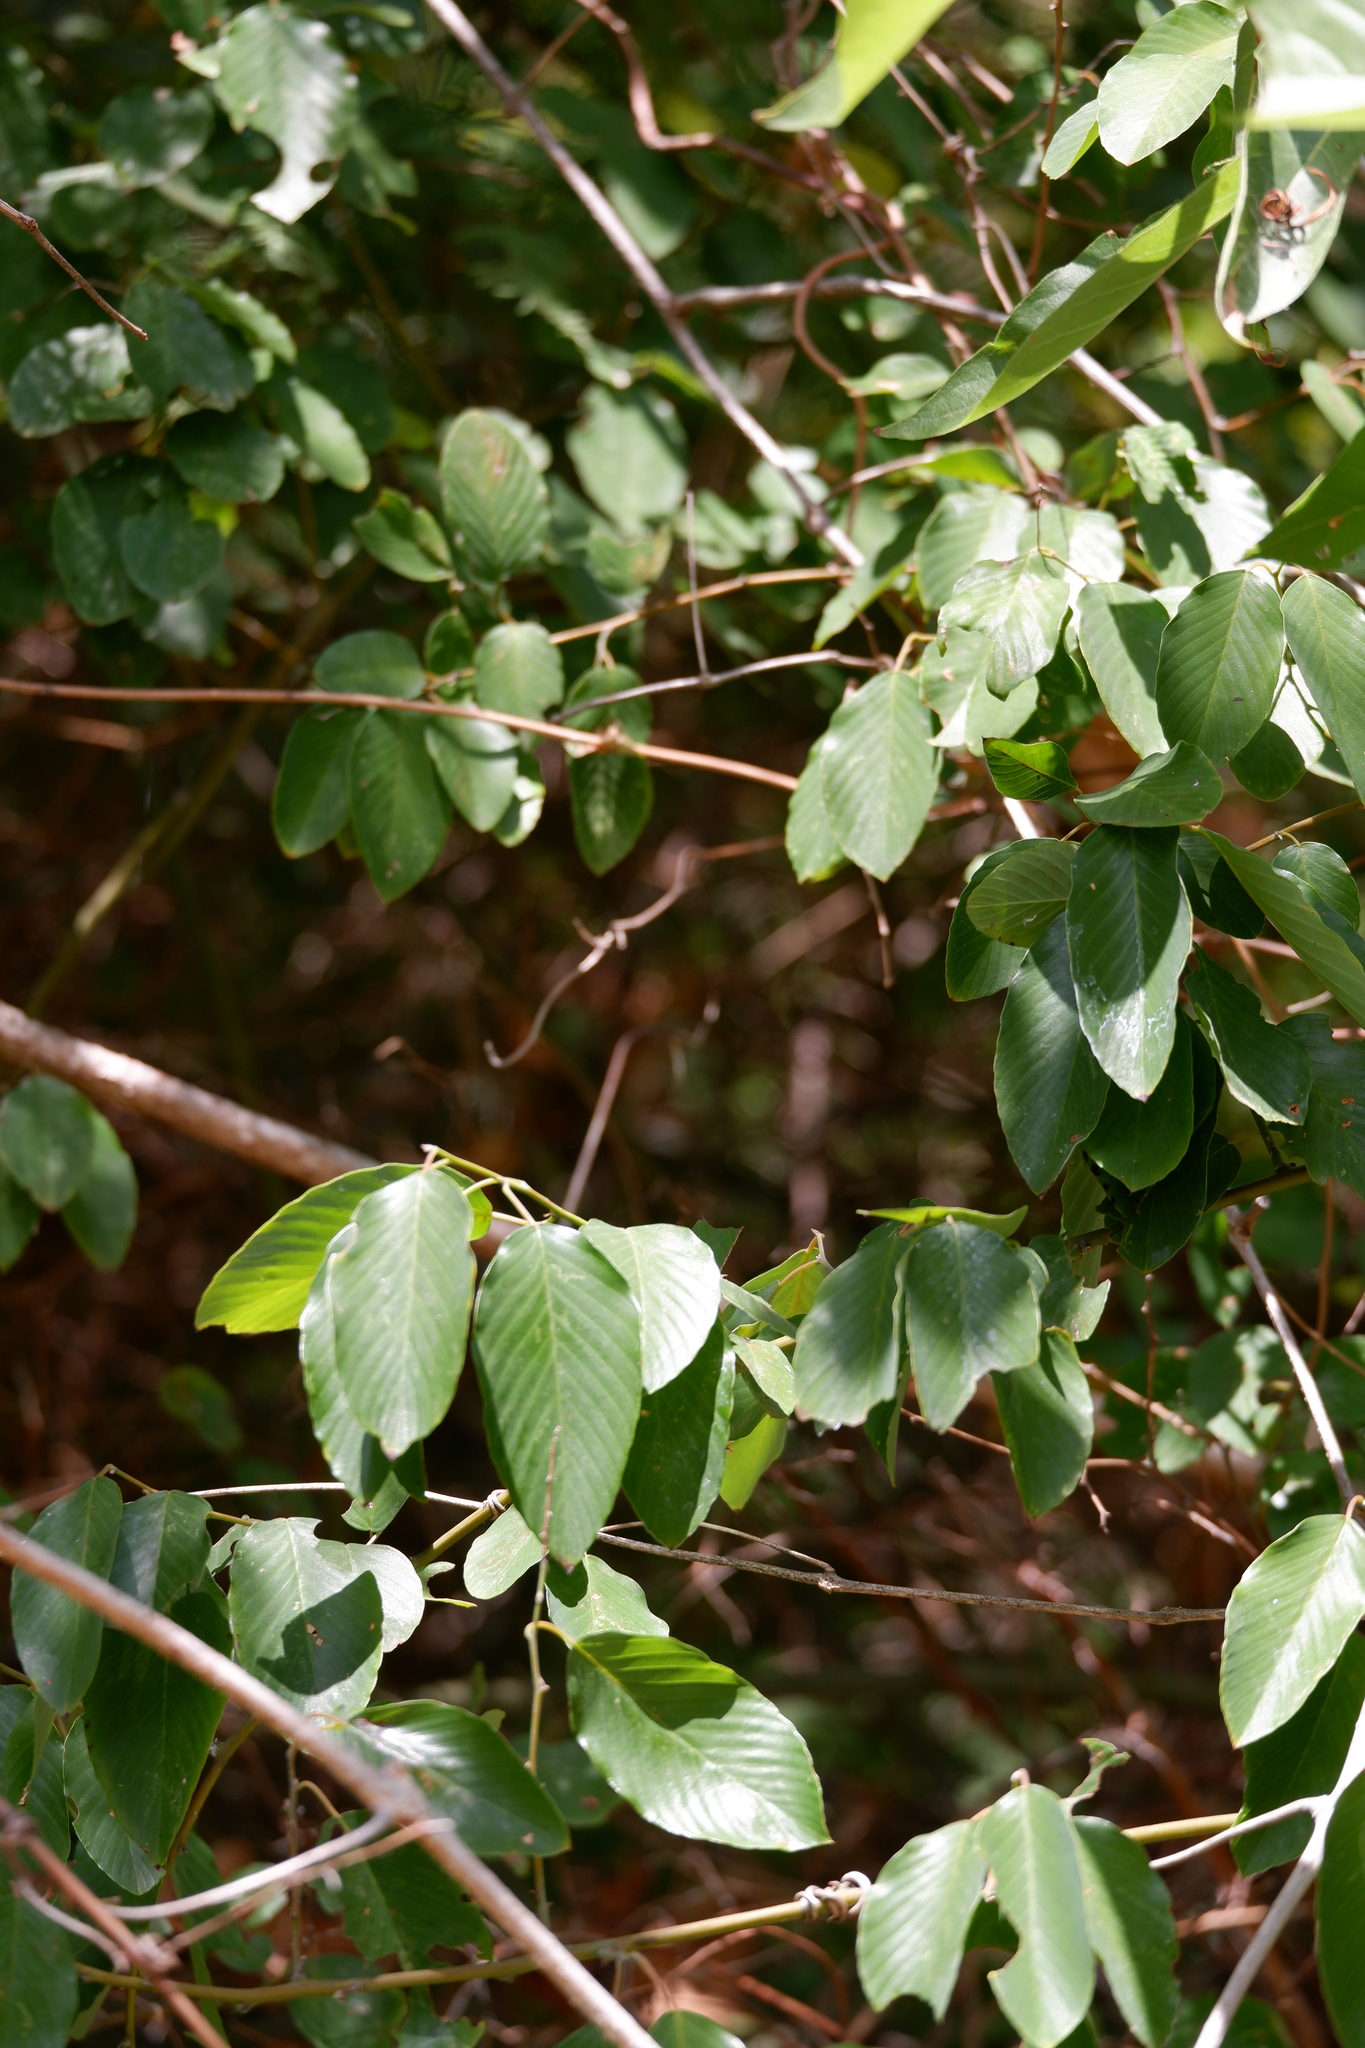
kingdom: Plantae
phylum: Tracheophyta
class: Magnoliopsida
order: Rosales
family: Rhamnaceae
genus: Berchemia
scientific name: Berchemia scandens
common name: Supplejack
